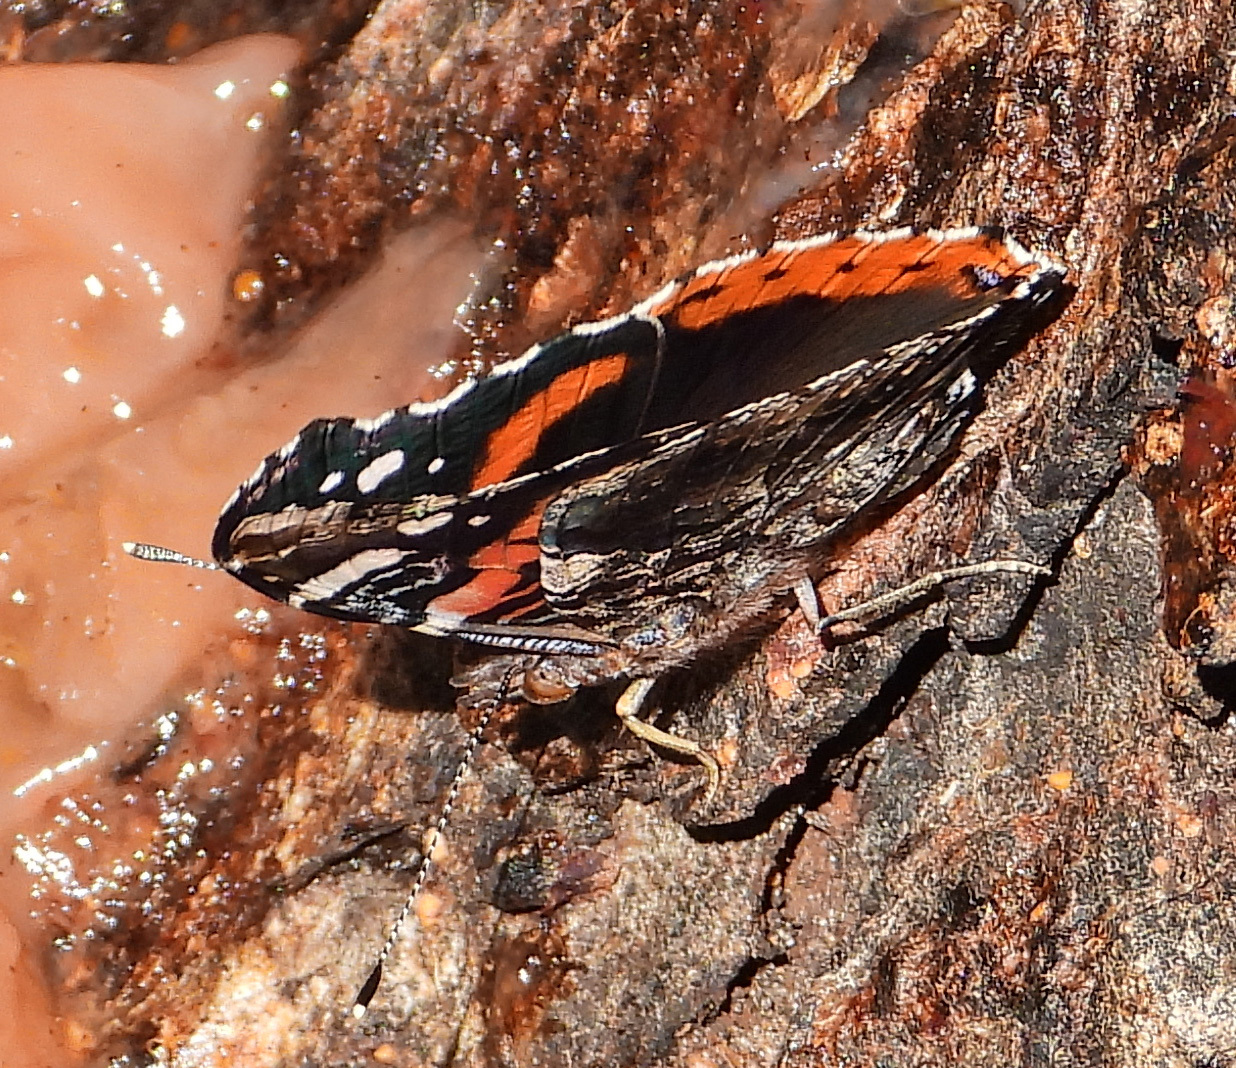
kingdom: Animalia
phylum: Arthropoda
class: Insecta
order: Lepidoptera
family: Nymphalidae
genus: Vanessa
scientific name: Vanessa atalanta
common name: Red admiral
